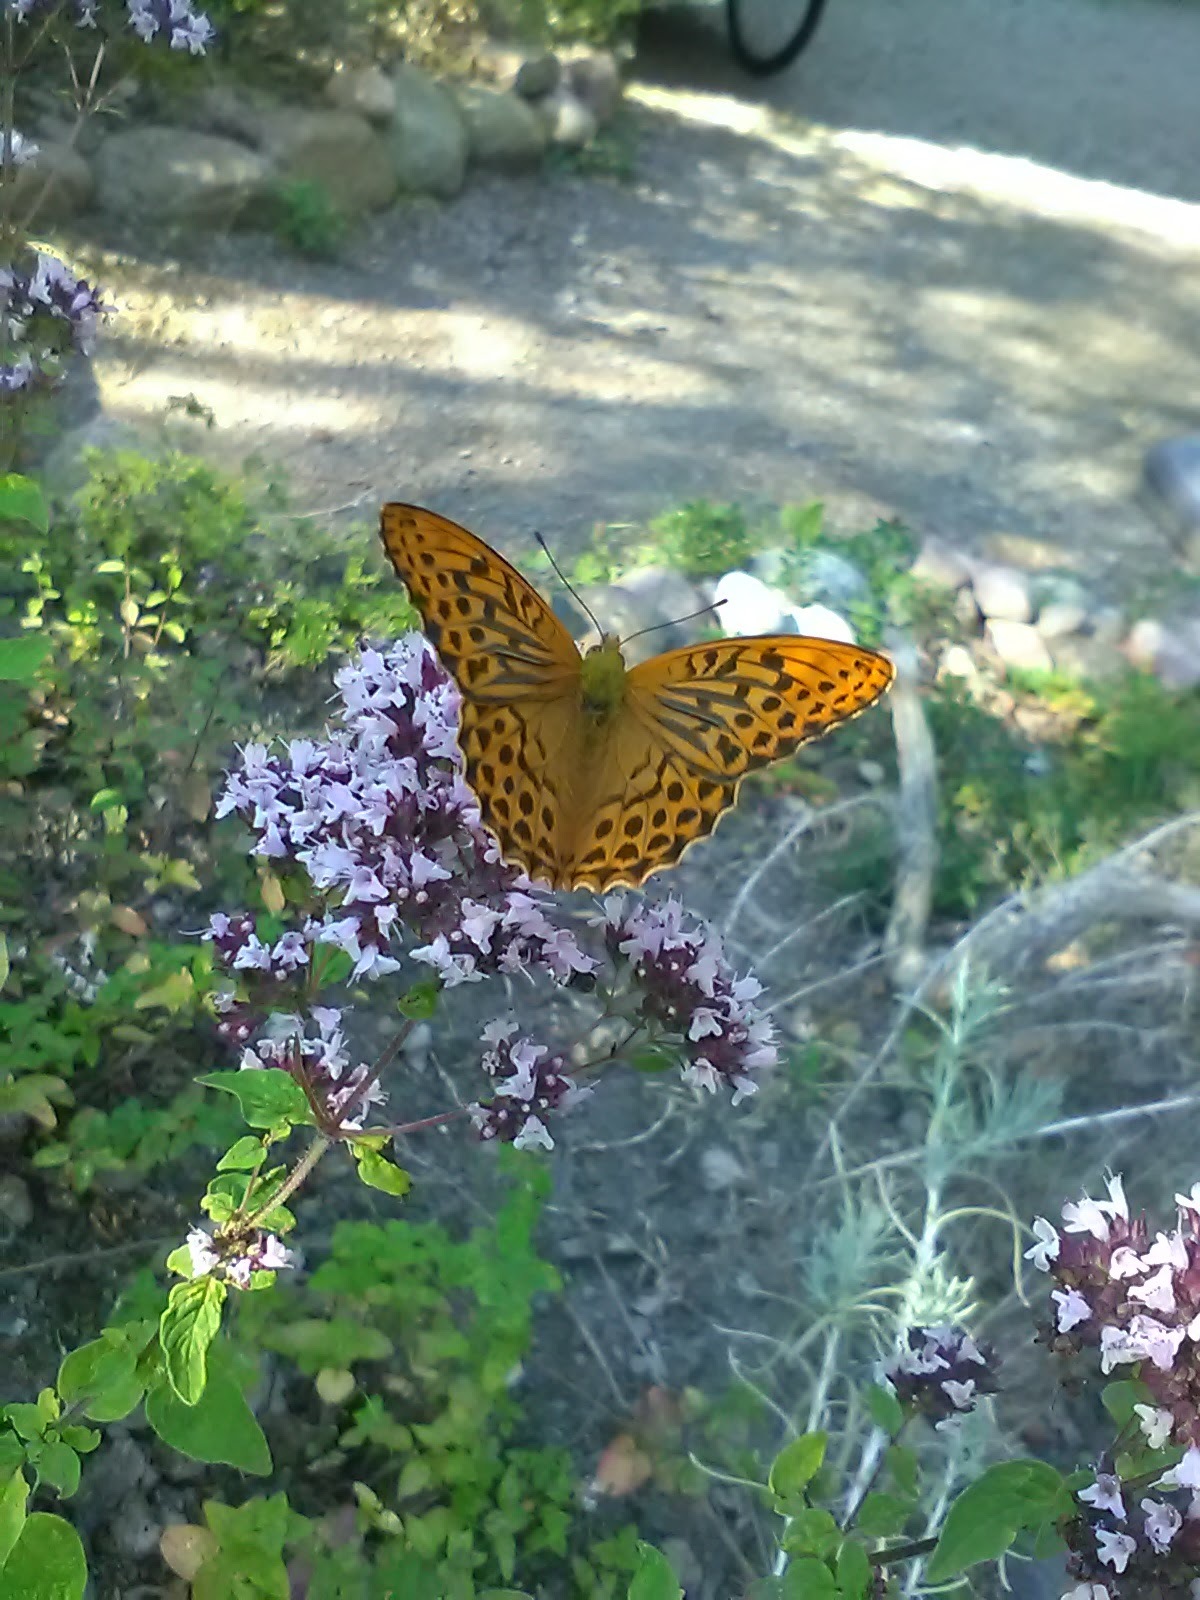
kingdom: Animalia
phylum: Arthropoda
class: Insecta
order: Lepidoptera
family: Nymphalidae
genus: Argynnis
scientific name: Argynnis paphia
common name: Silver-washed fritillary
